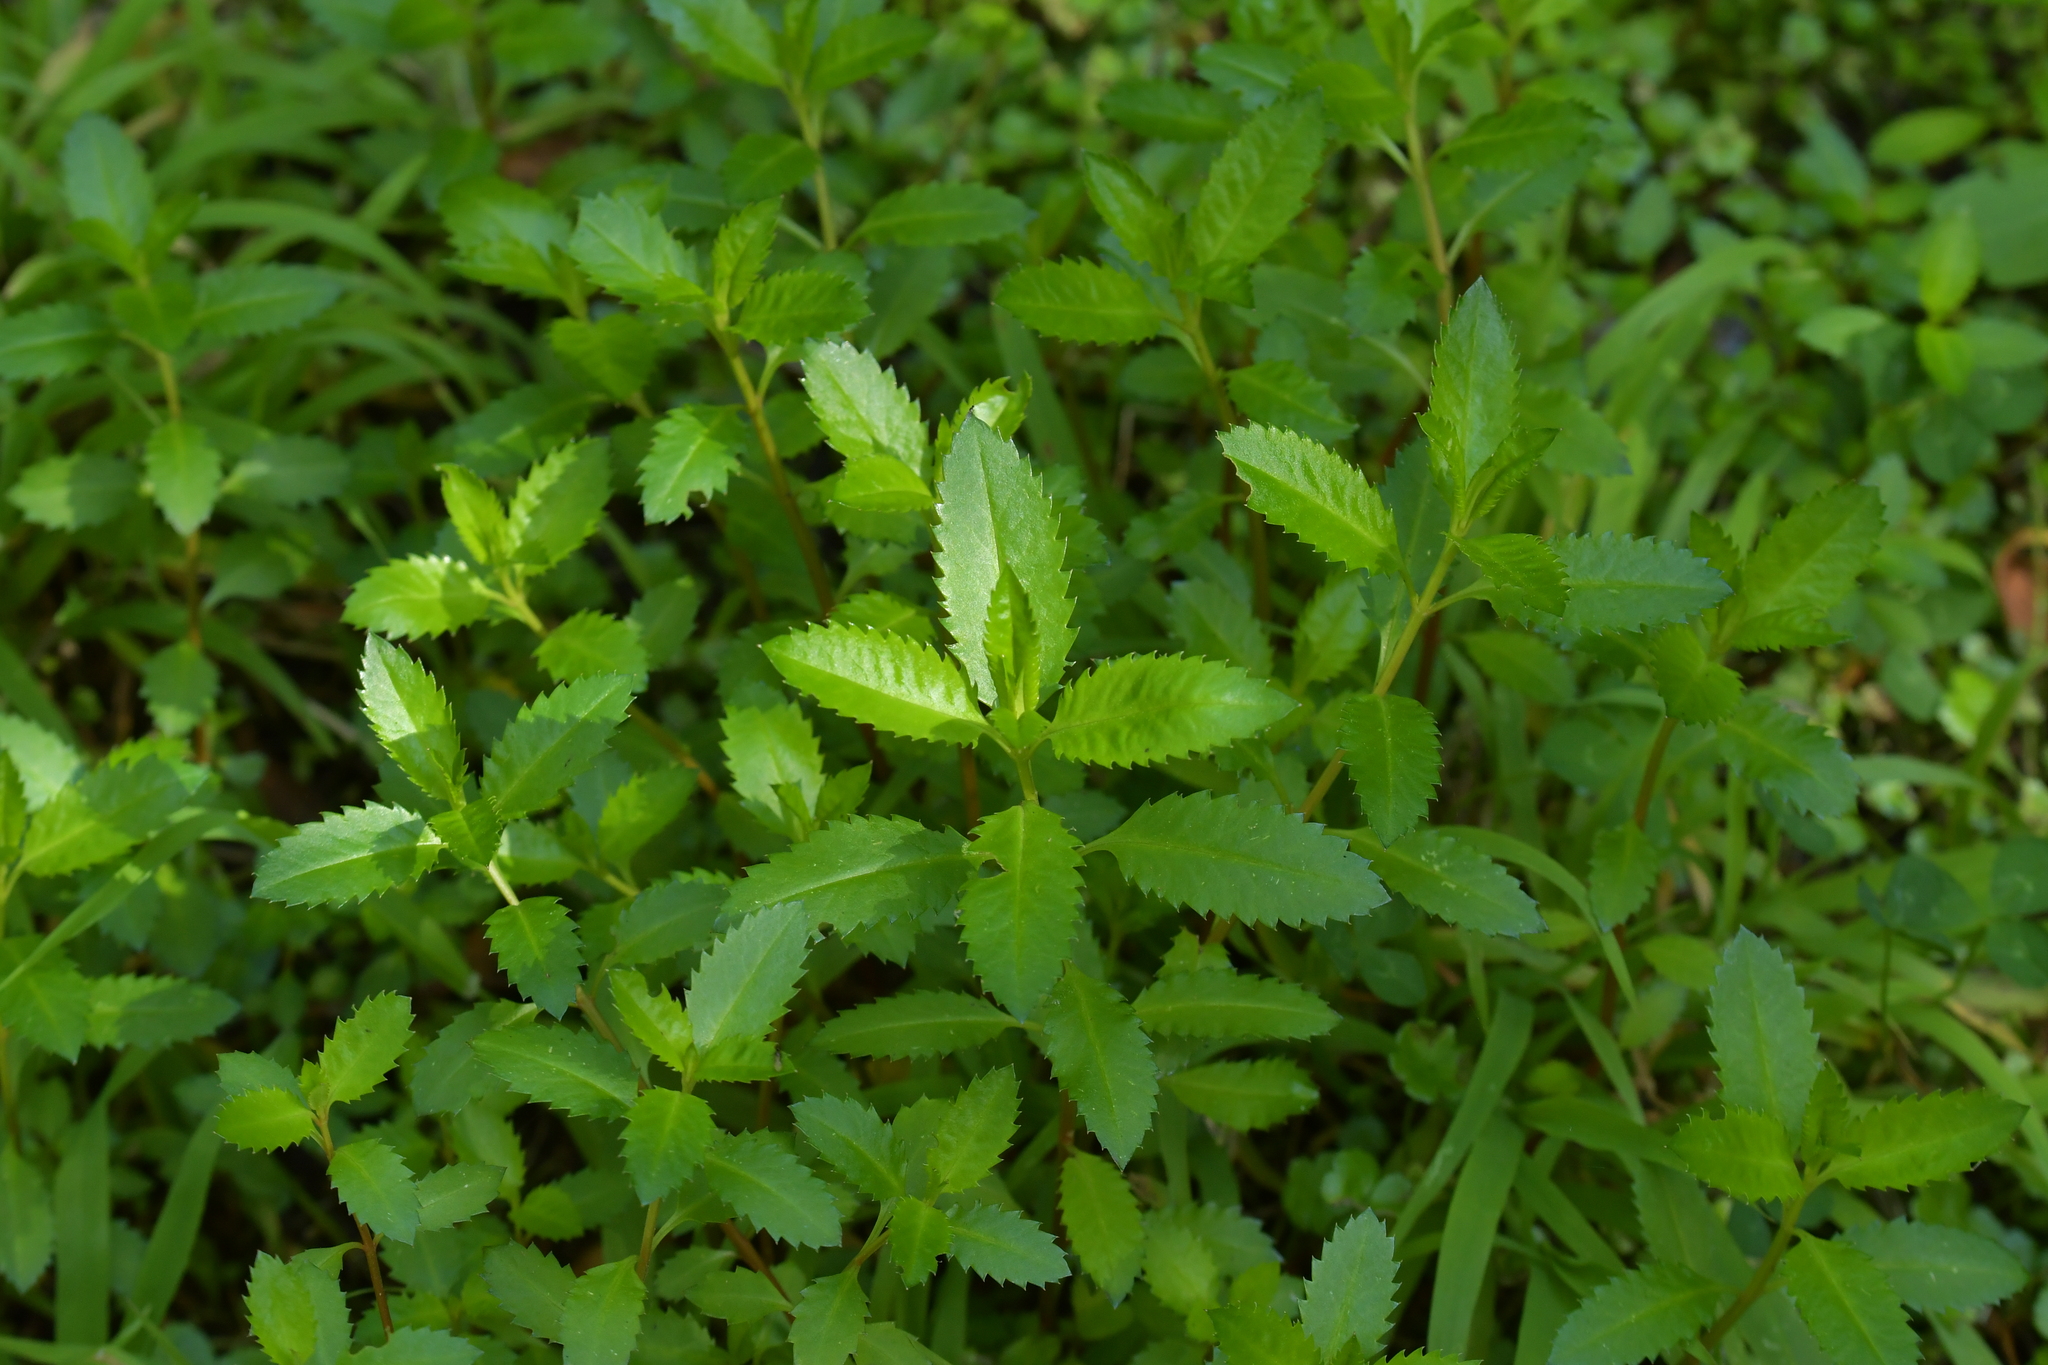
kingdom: Plantae
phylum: Tracheophyta
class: Magnoliopsida
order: Saxifragales
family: Haloragaceae
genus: Haloragis
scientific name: Haloragis erecta
